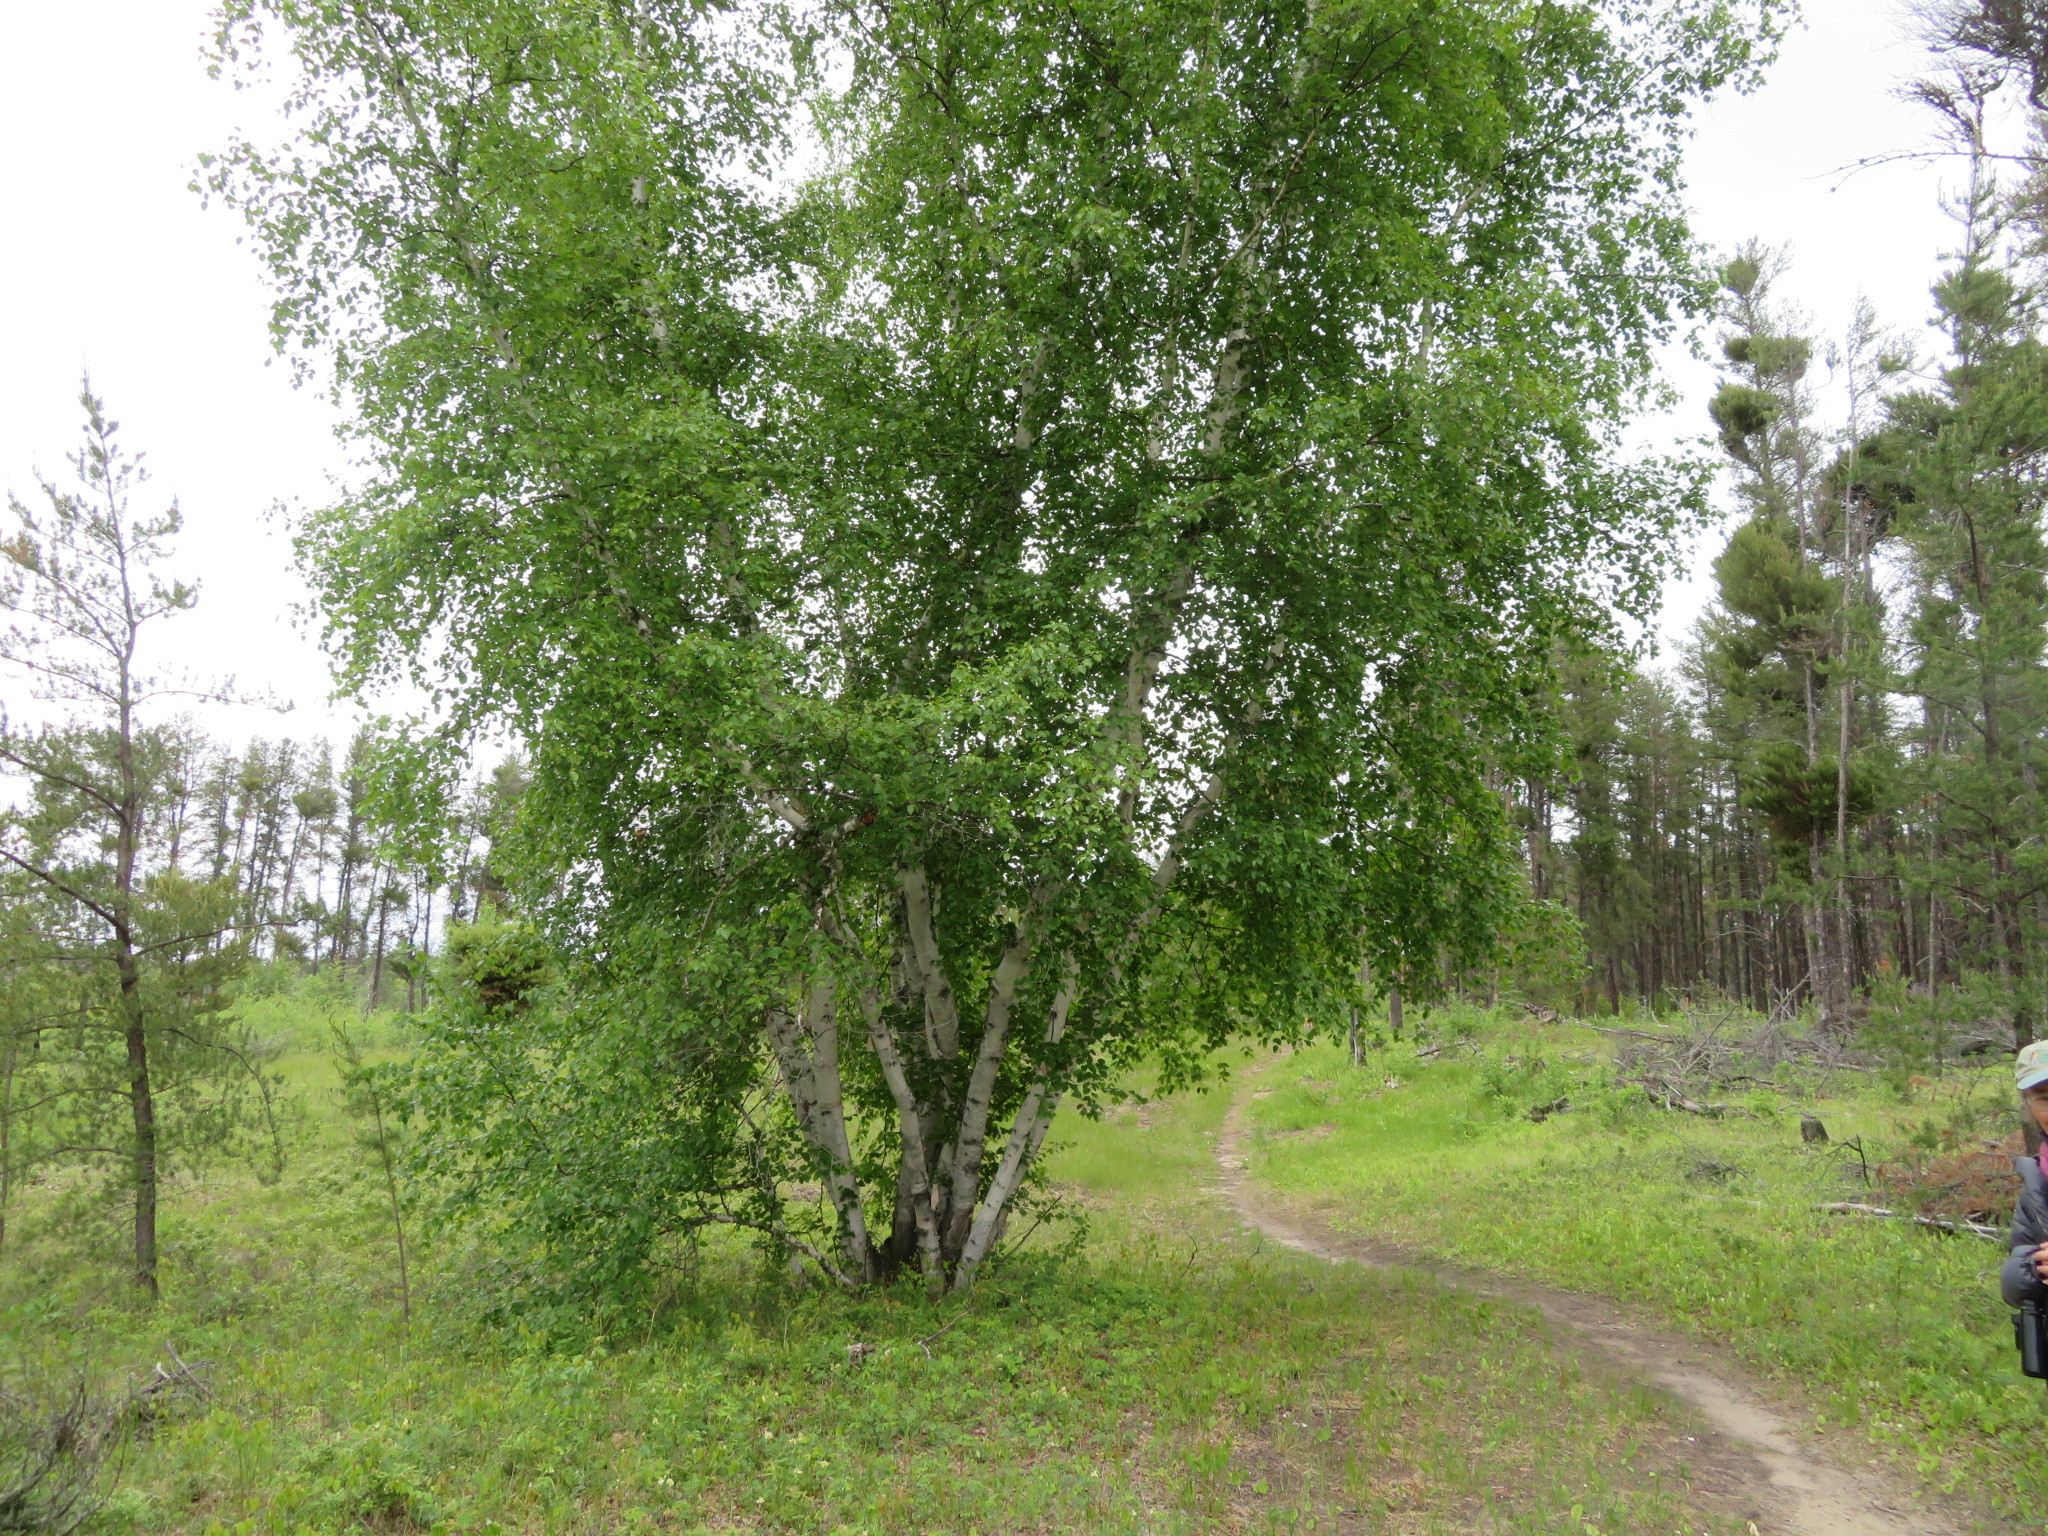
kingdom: Plantae
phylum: Tracheophyta
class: Magnoliopsida
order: Fagales
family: Betulaceae
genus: Betula
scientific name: Betula papyrifera
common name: Paper birch
